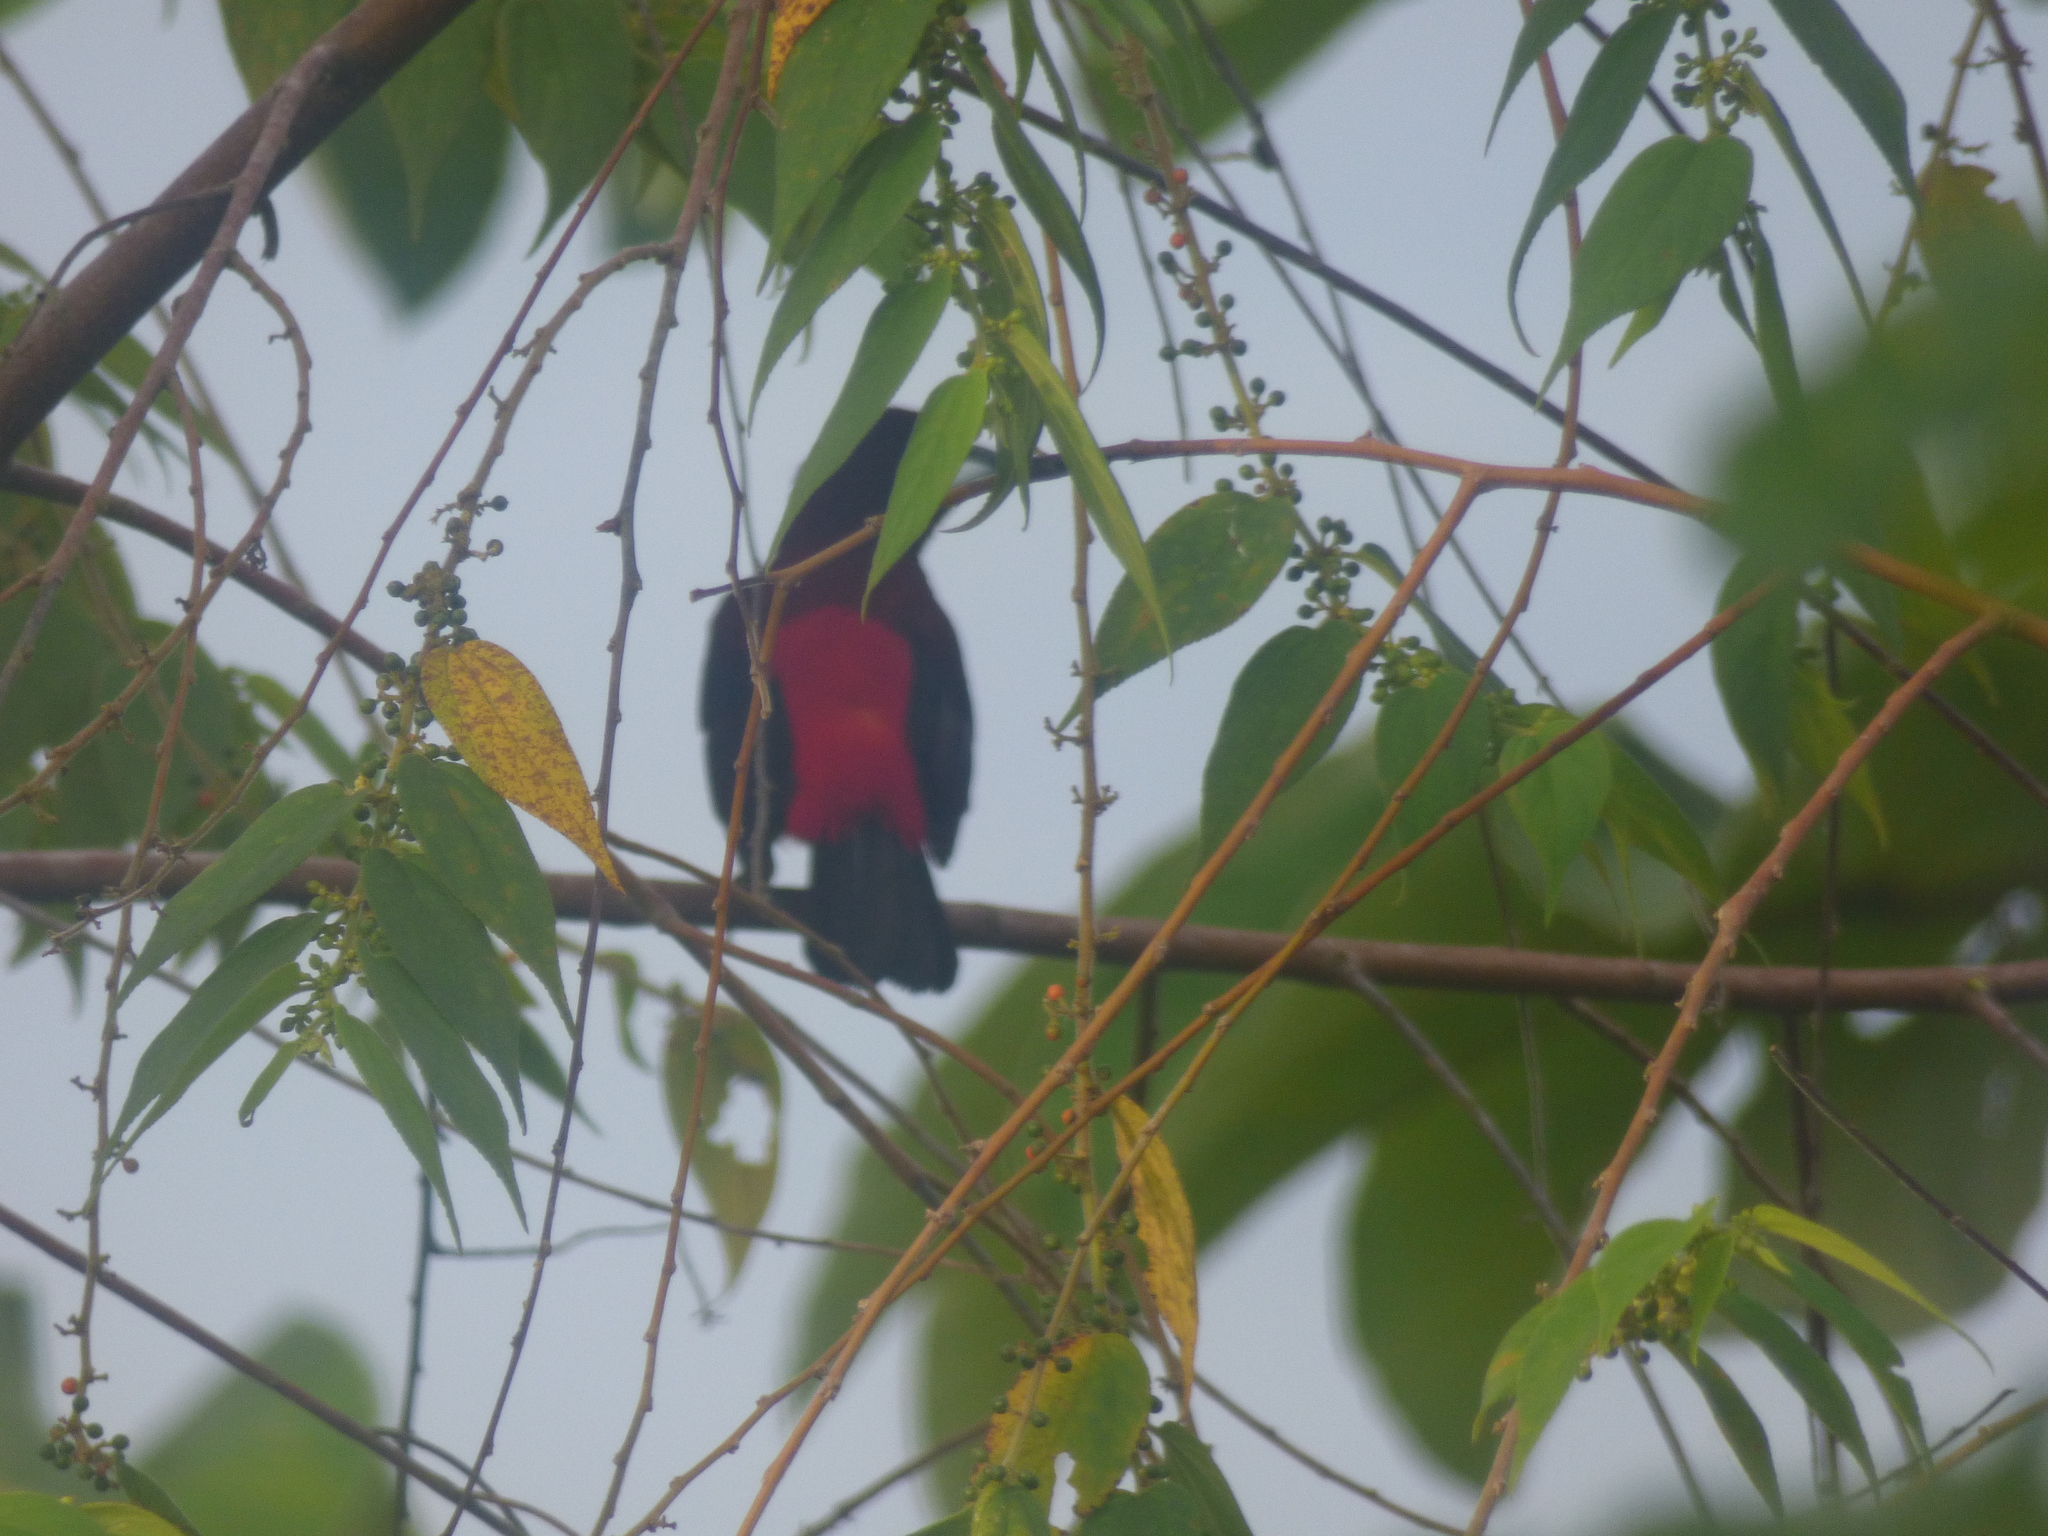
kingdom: Animalia
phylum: Chordata
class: Aves
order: Passeriformes
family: Thraupidae
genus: Ramphocelus
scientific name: Ramphocelus dimidiatus
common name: Crimson-backed tanager
